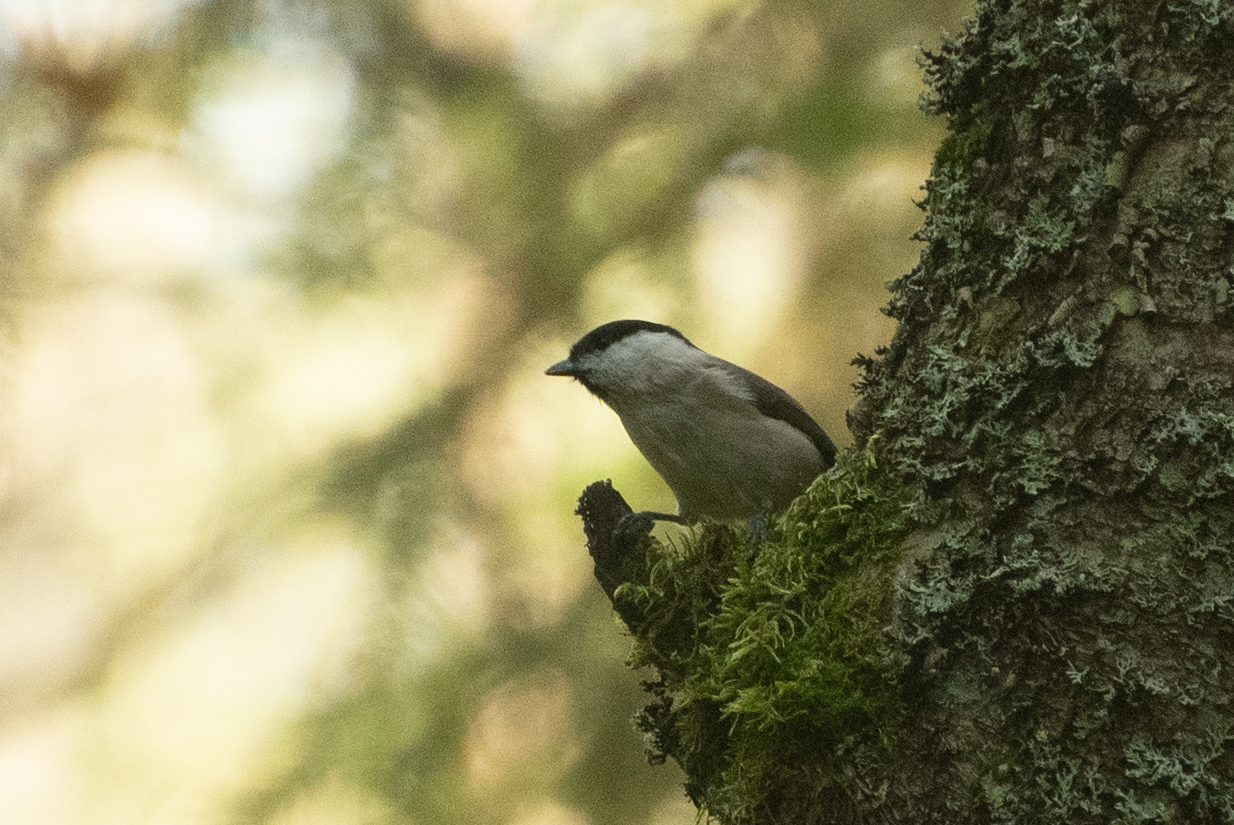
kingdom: Animalia
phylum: Chordata
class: Aves
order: Passeriformes
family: Paridae
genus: Poecile
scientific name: Poecile palustris
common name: Marsh tit
